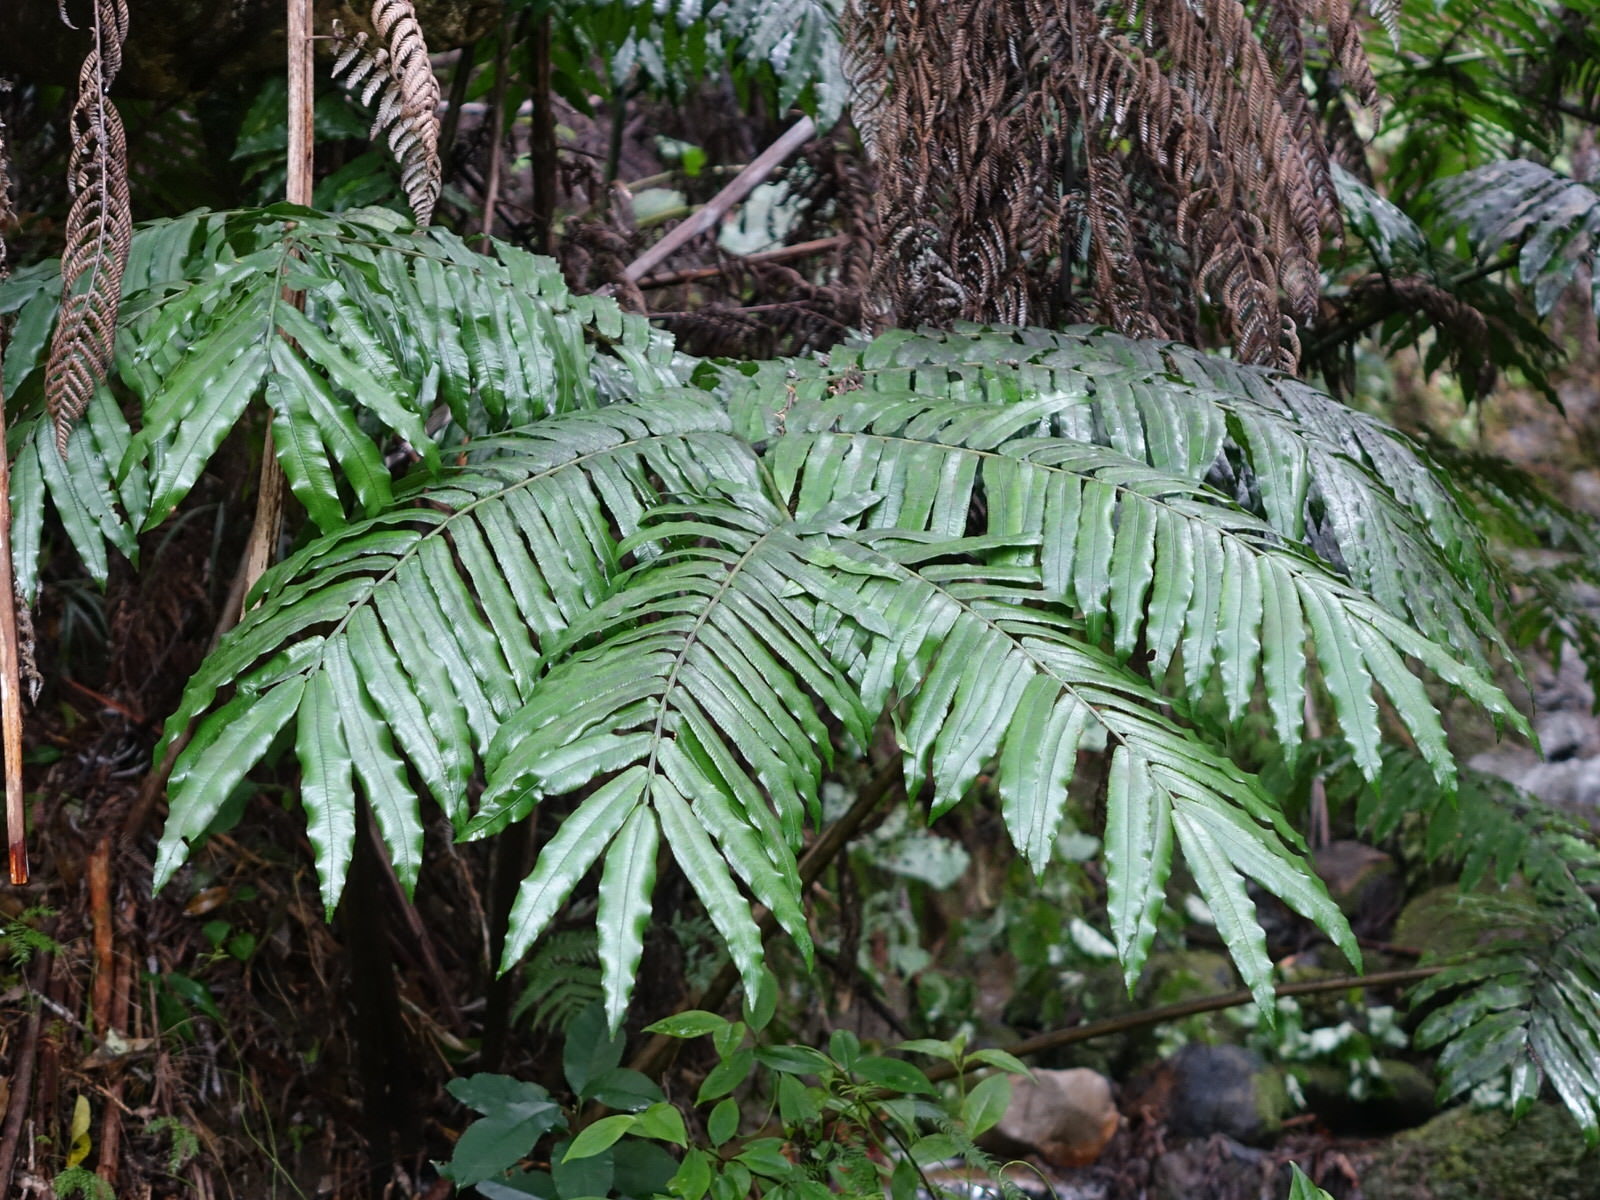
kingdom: Plantae
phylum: Tracheophyta
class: Polypodiopsida
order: Marattiales
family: Marattiaceae
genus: Ptisana
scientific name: Ptisana salicina
